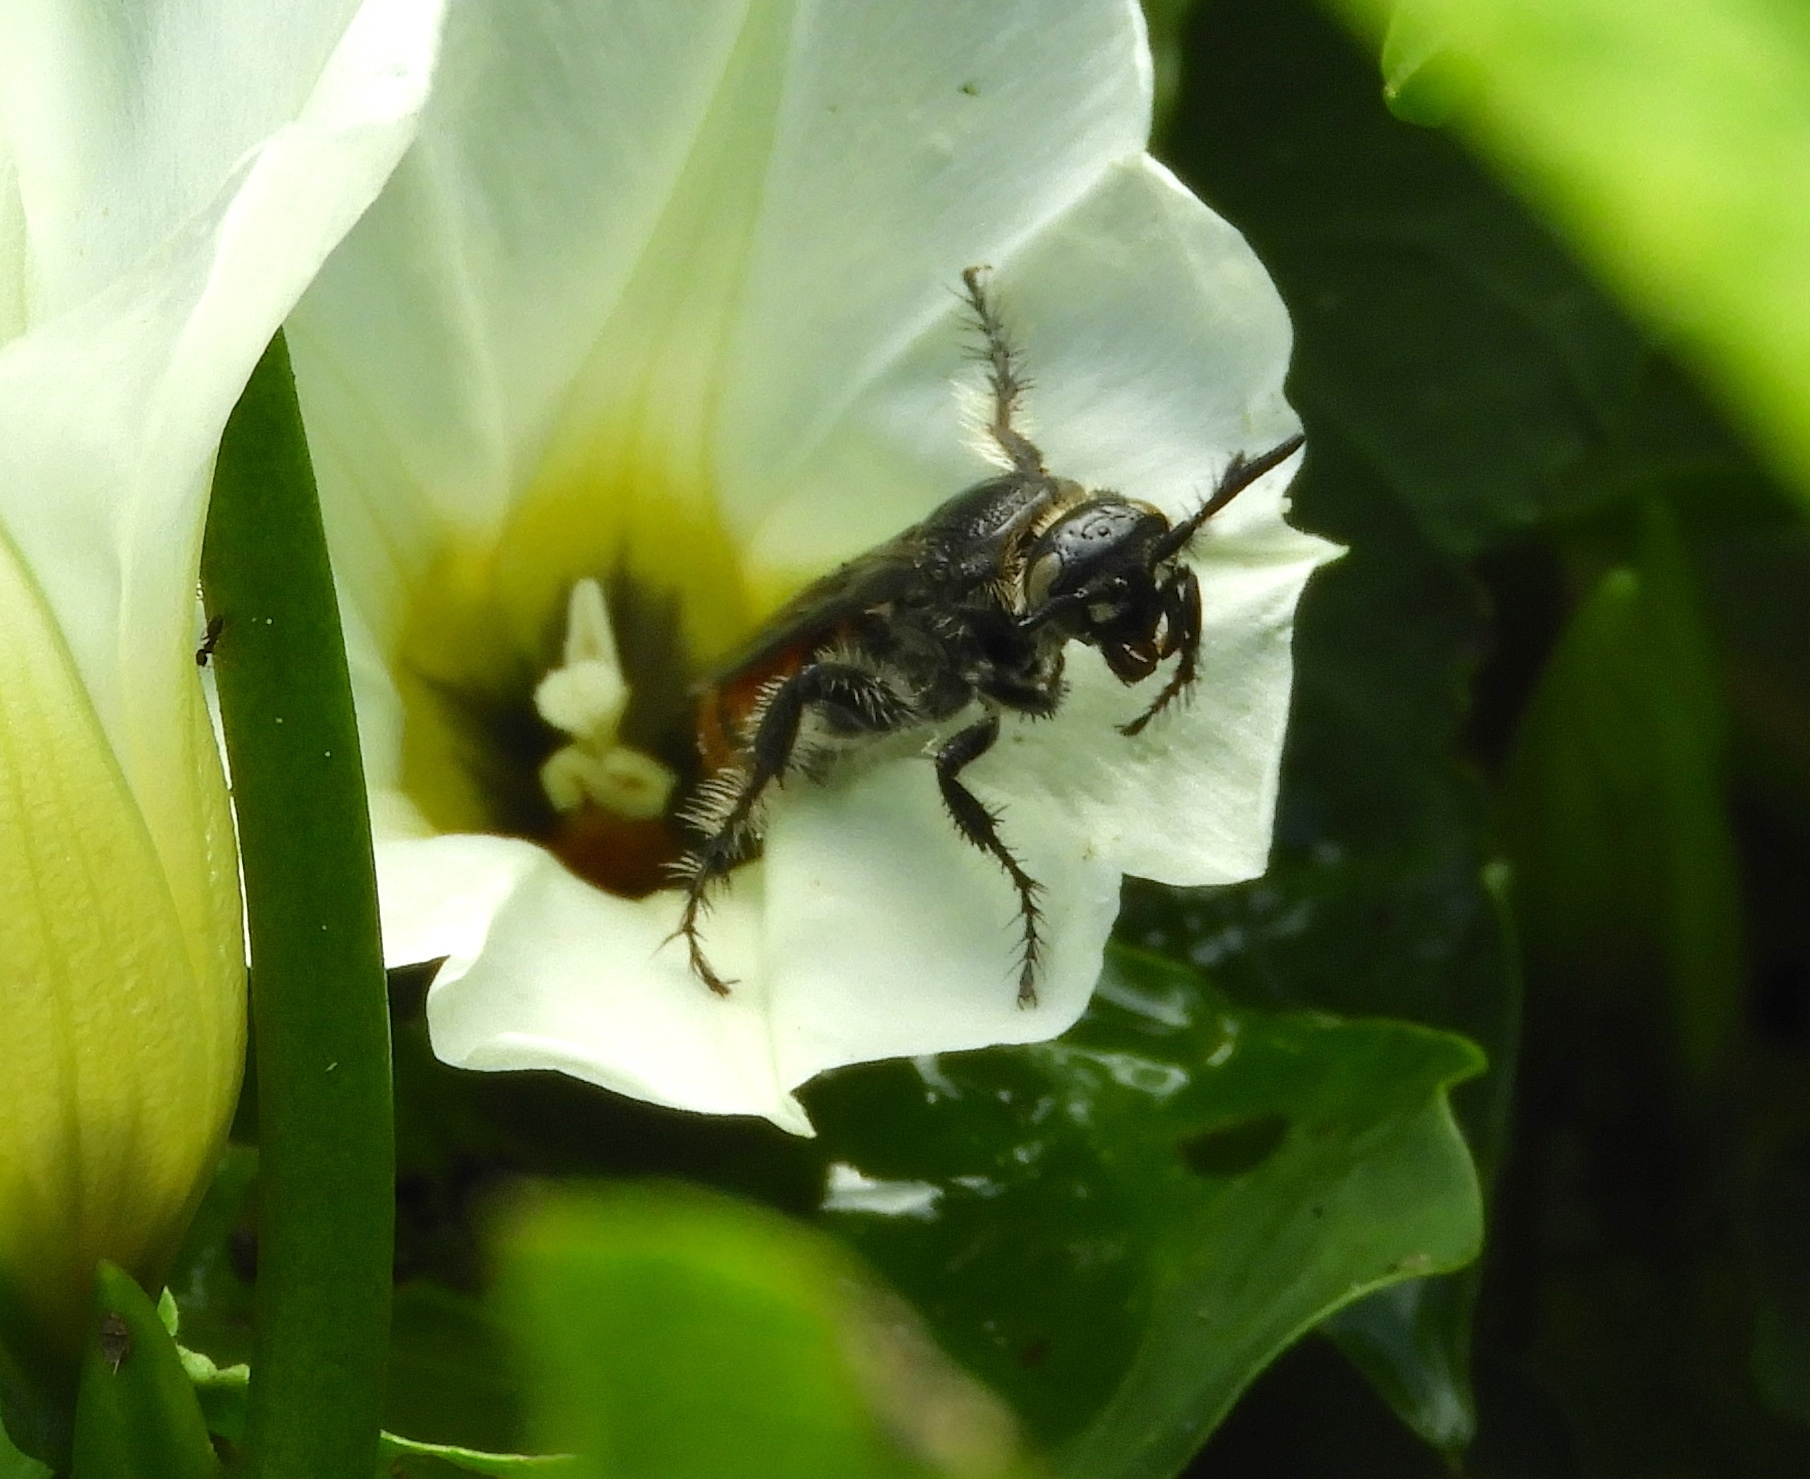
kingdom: Animalia
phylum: Arthropoda
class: Insecta
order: Hymenoptera
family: Scoliidae
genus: Dielis
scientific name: Dielis tolteca
